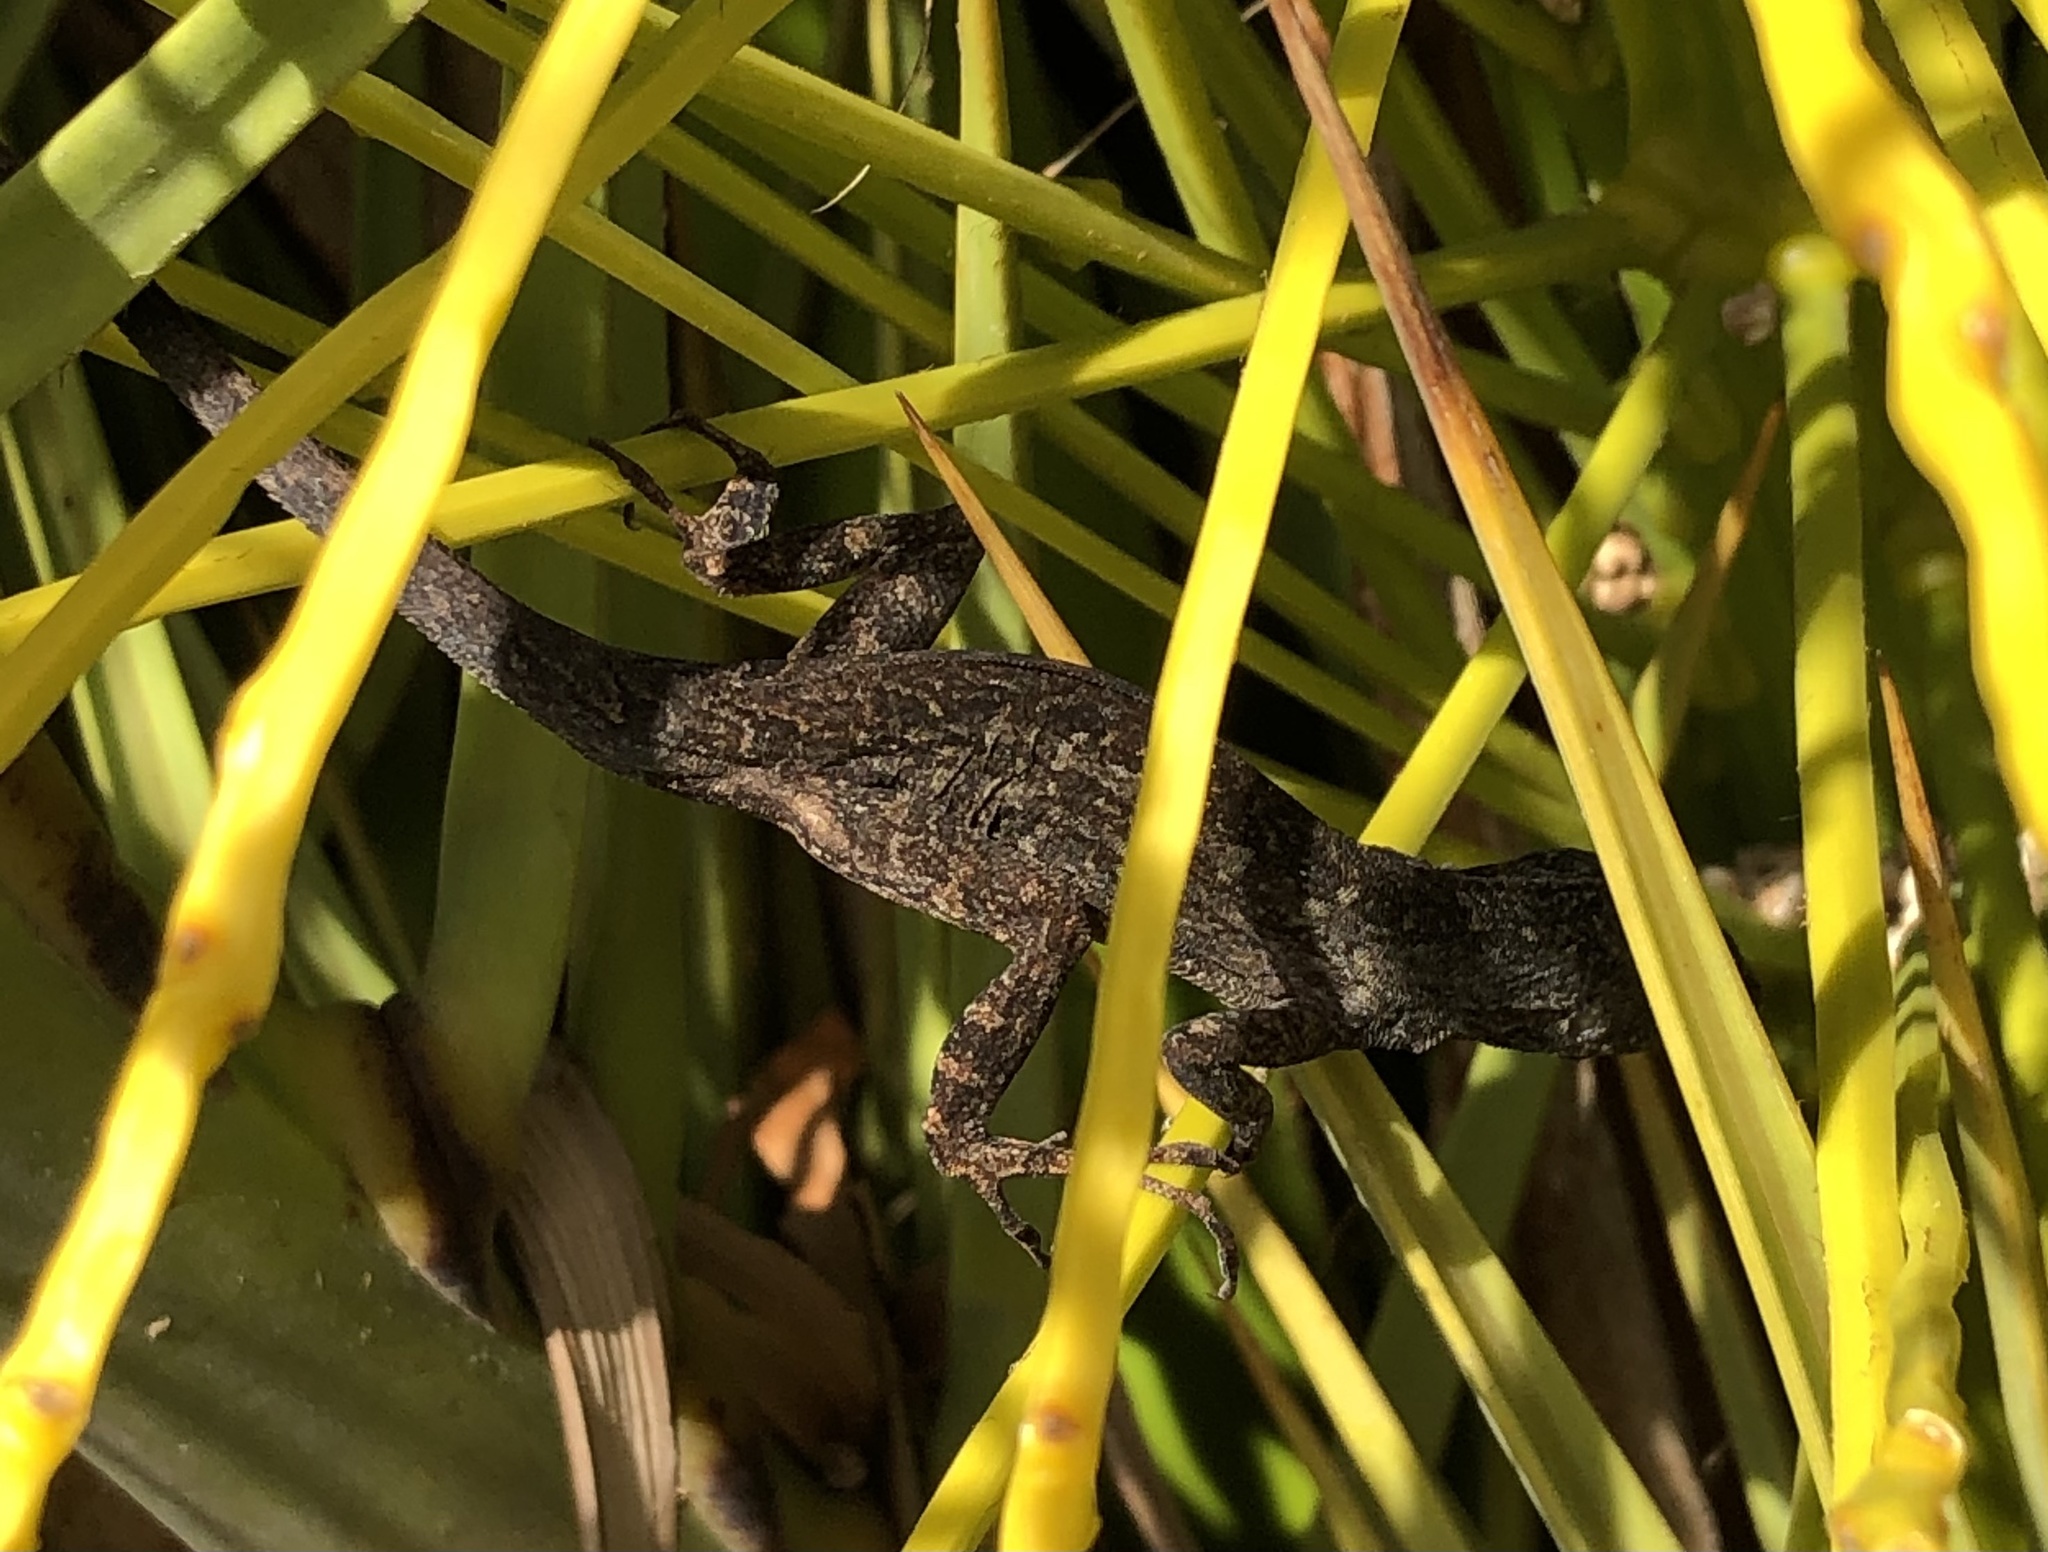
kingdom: Animalia
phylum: Chordata
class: Squamata
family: Dactyloidae
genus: Anolis
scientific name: Anolis sagrei
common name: Brown anole
